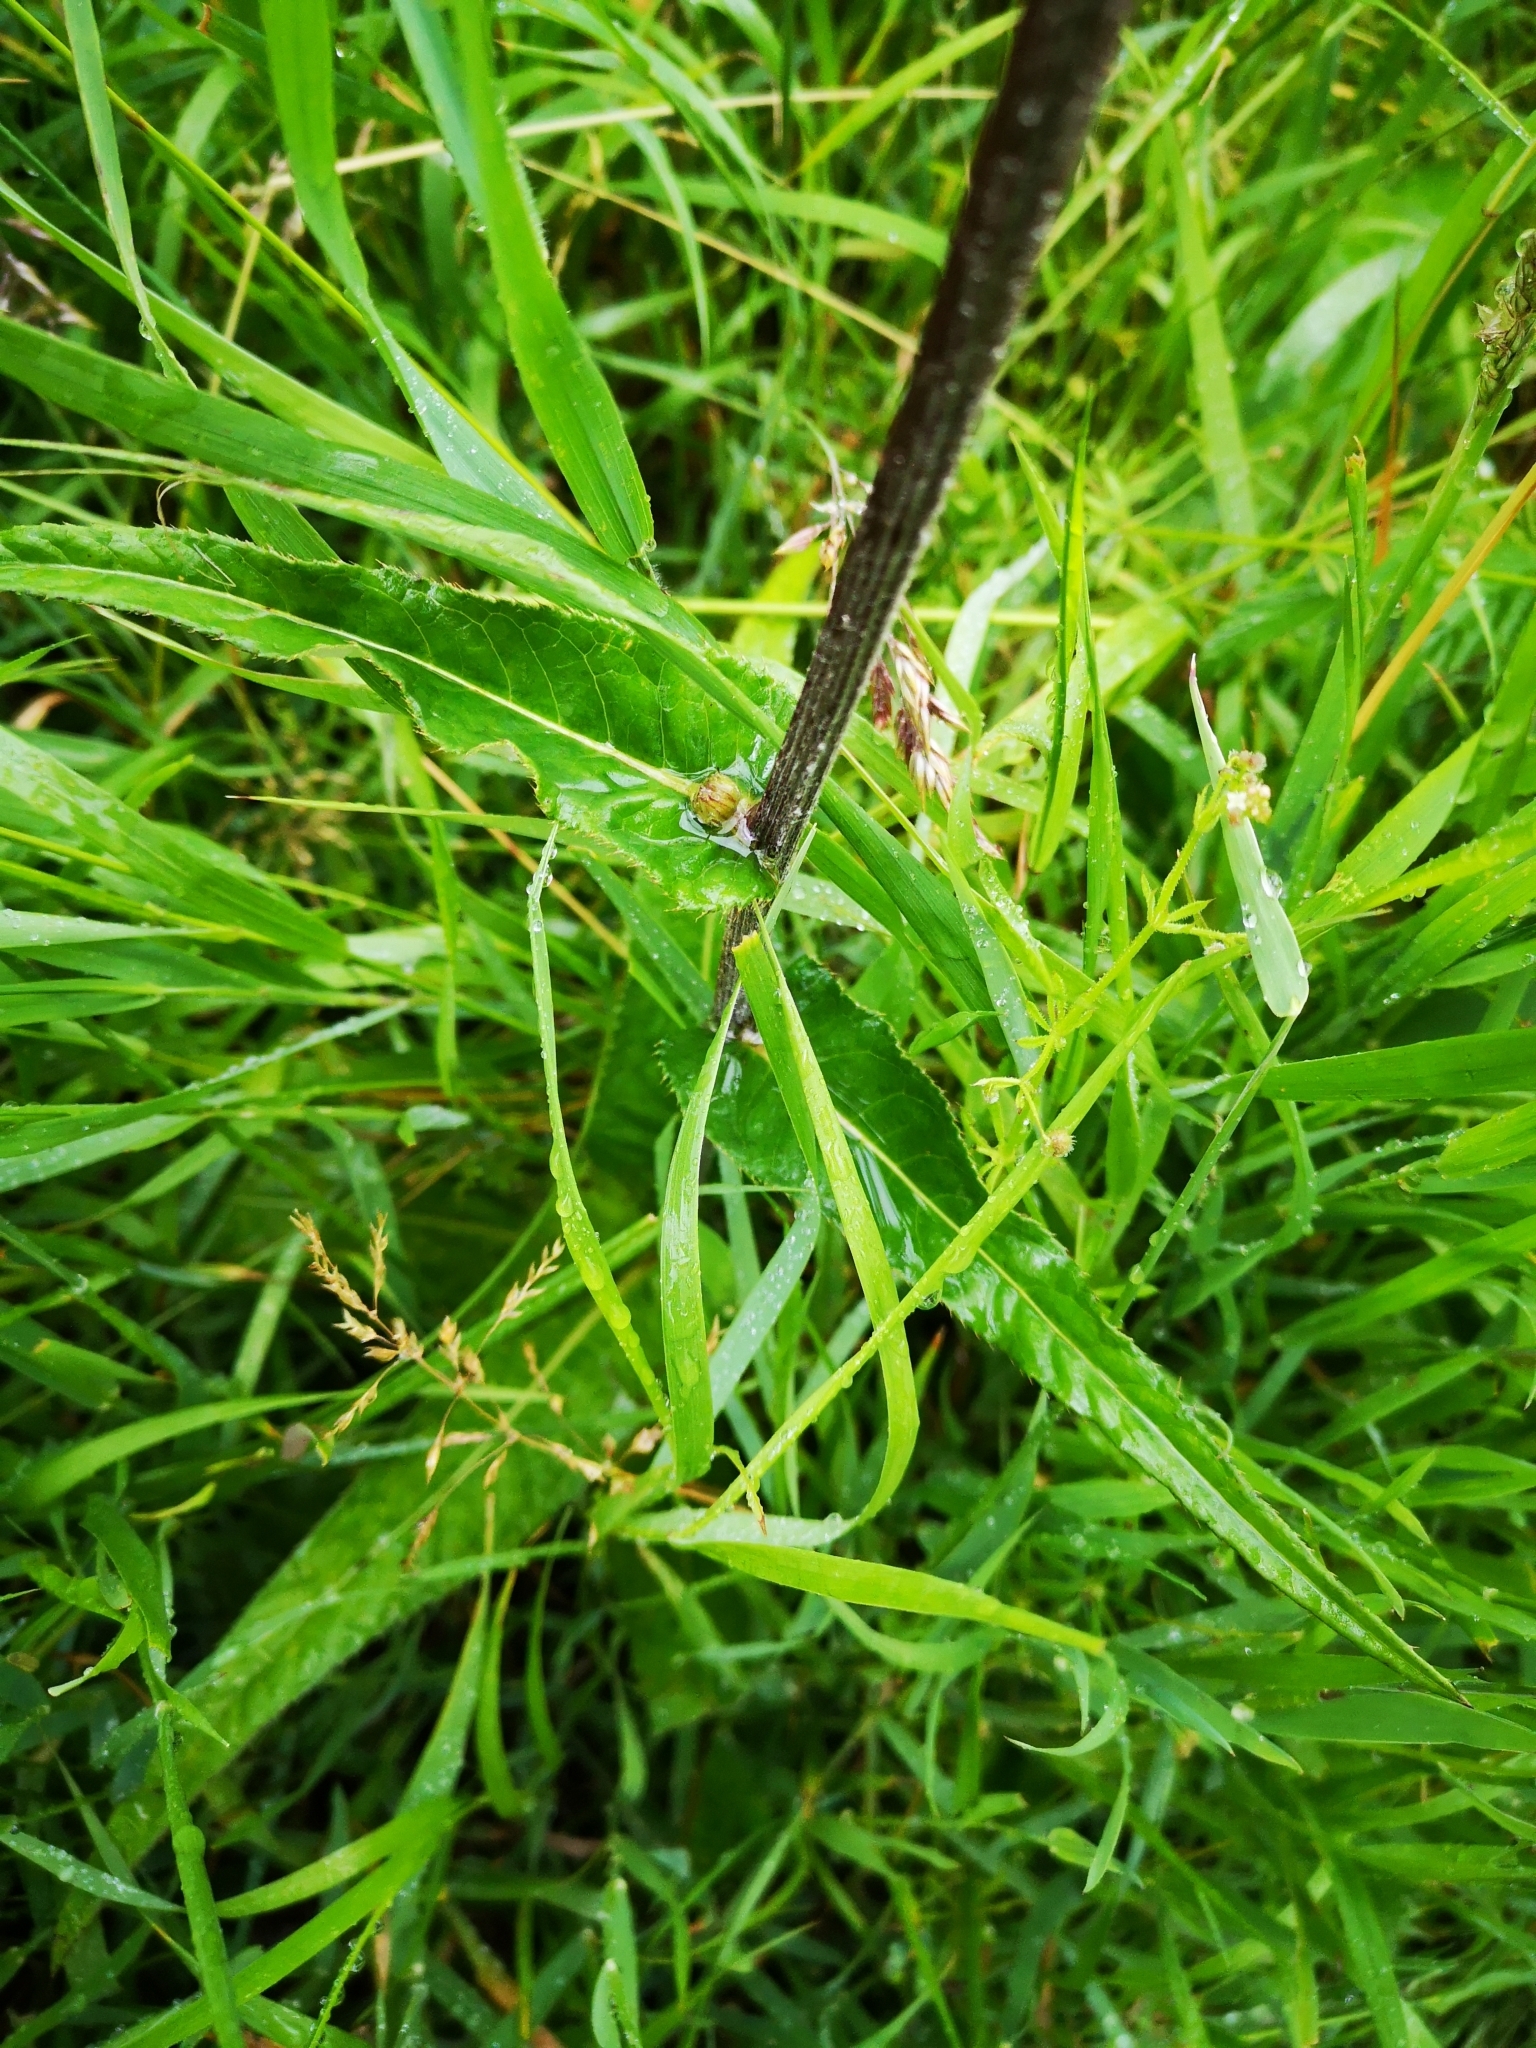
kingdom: Plantae
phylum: Tracheophyta
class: Magnoliopsida
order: Asterales
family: Asteraceae
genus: Cirsium
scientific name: Cirsium heterophyllum
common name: Melancholy thistle
